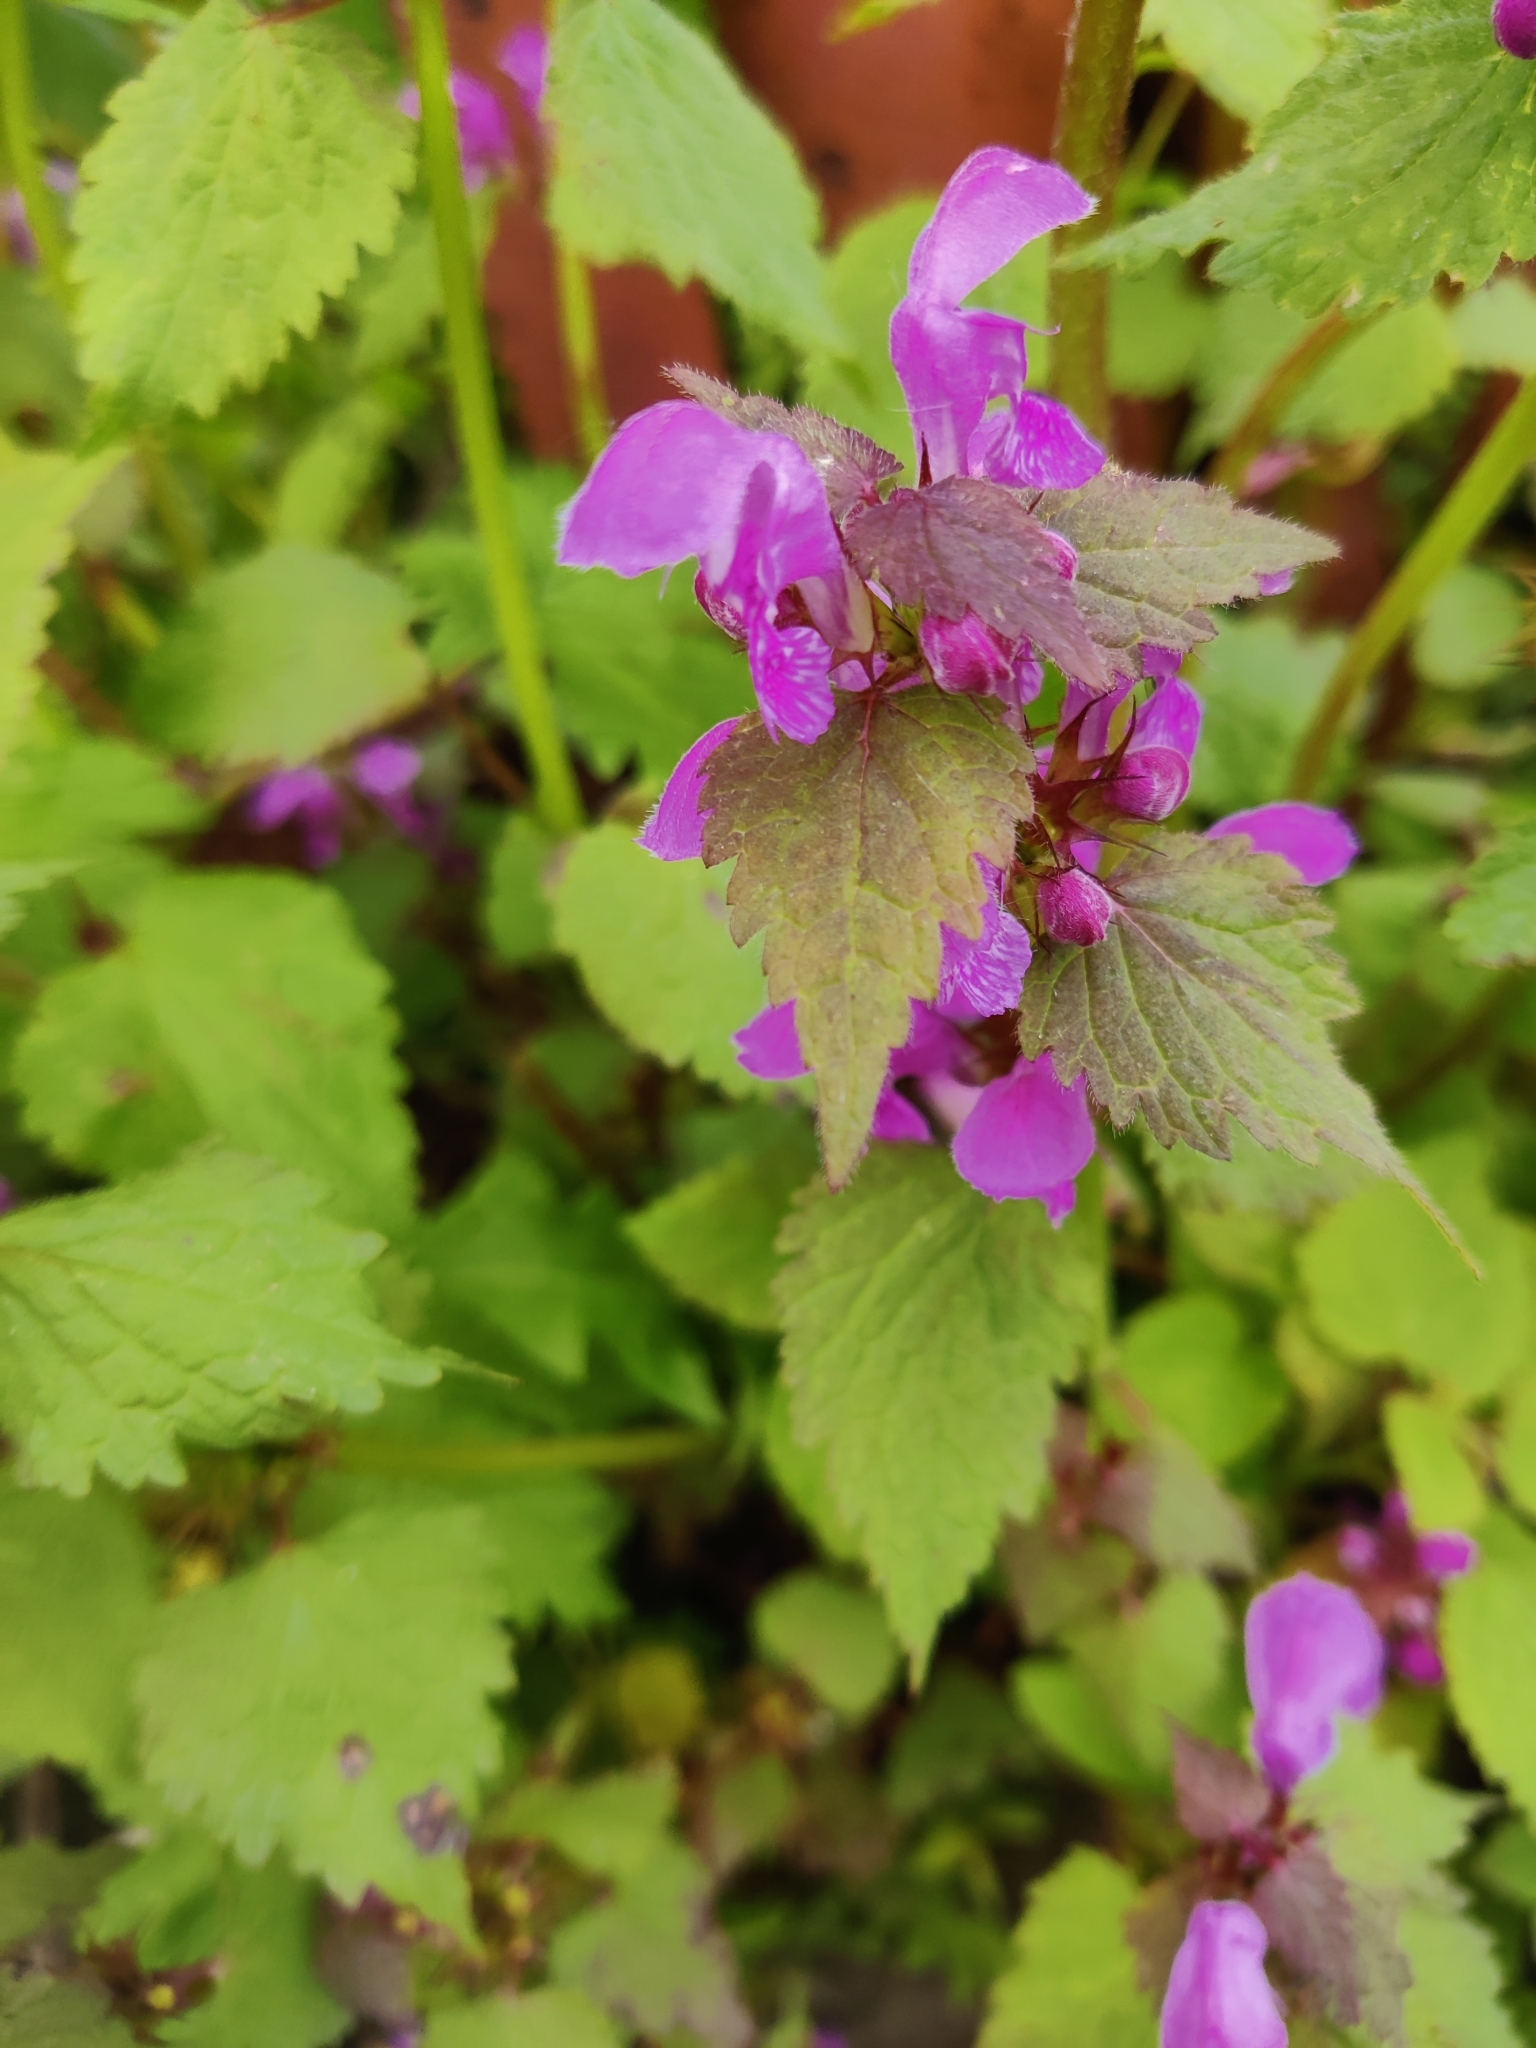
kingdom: Plantae
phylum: Tracheophyta
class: Magnoliopsida
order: Lamiales
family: Lamiaceae
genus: Lamium
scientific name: Lamium maculatum
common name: Spotted dead-nettle
